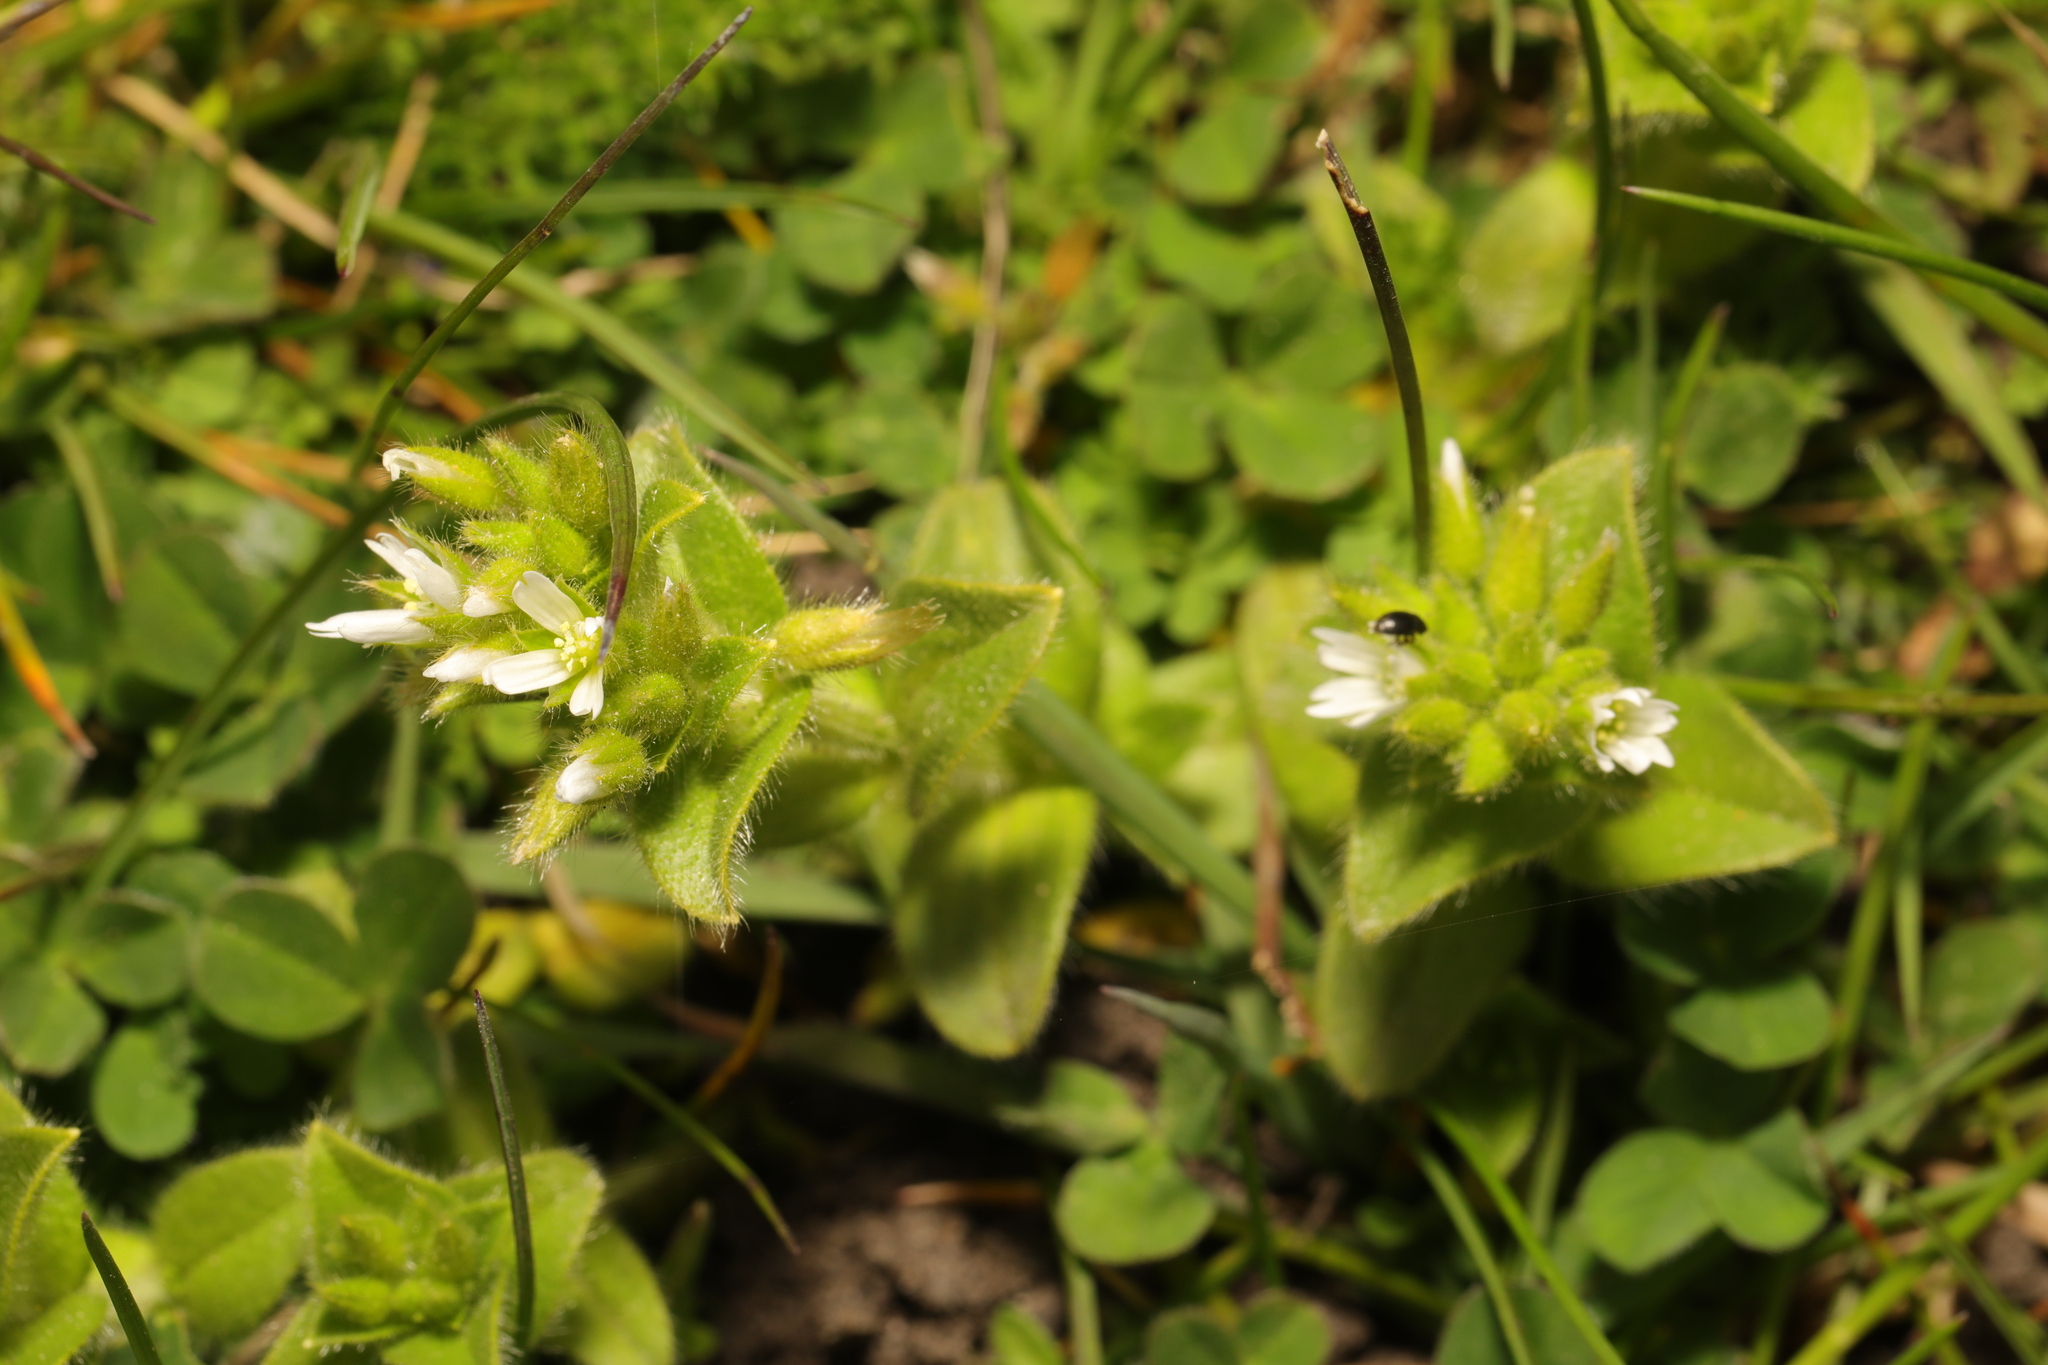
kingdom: Plantae
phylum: Tracheophyta
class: Magnoliopsida
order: Caryophyllales
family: Caryophyllaceae
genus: Cerastium
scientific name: Cerastium glomeratum
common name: Sticky chickweed
